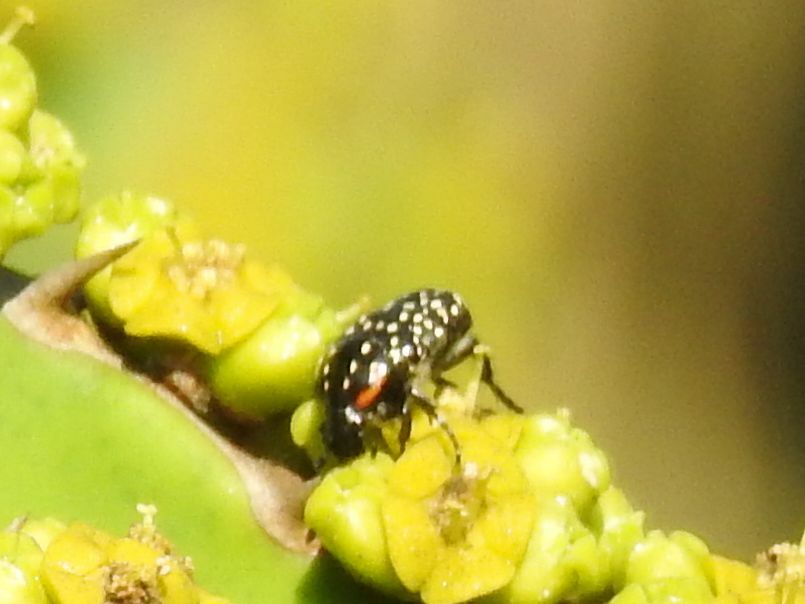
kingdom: Animalia
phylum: Arthropoda
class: Insecta
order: Coleoptera
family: Scarabaeidae
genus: Oxythyrea
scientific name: Oxythyrea
